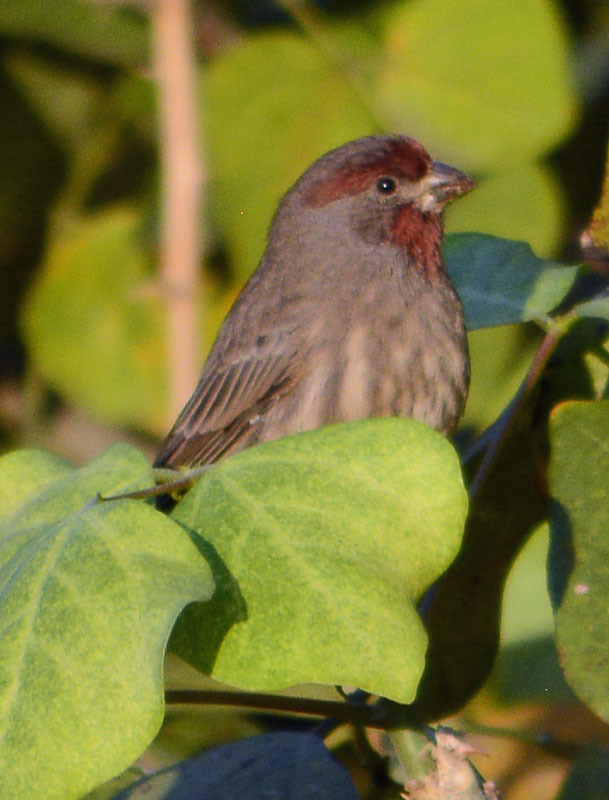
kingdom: Animalia
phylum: Chordata
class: Aves
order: Passeriformes
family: Fringillidae
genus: Haemorhous
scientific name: Haemorhous mexicanus
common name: House finch
